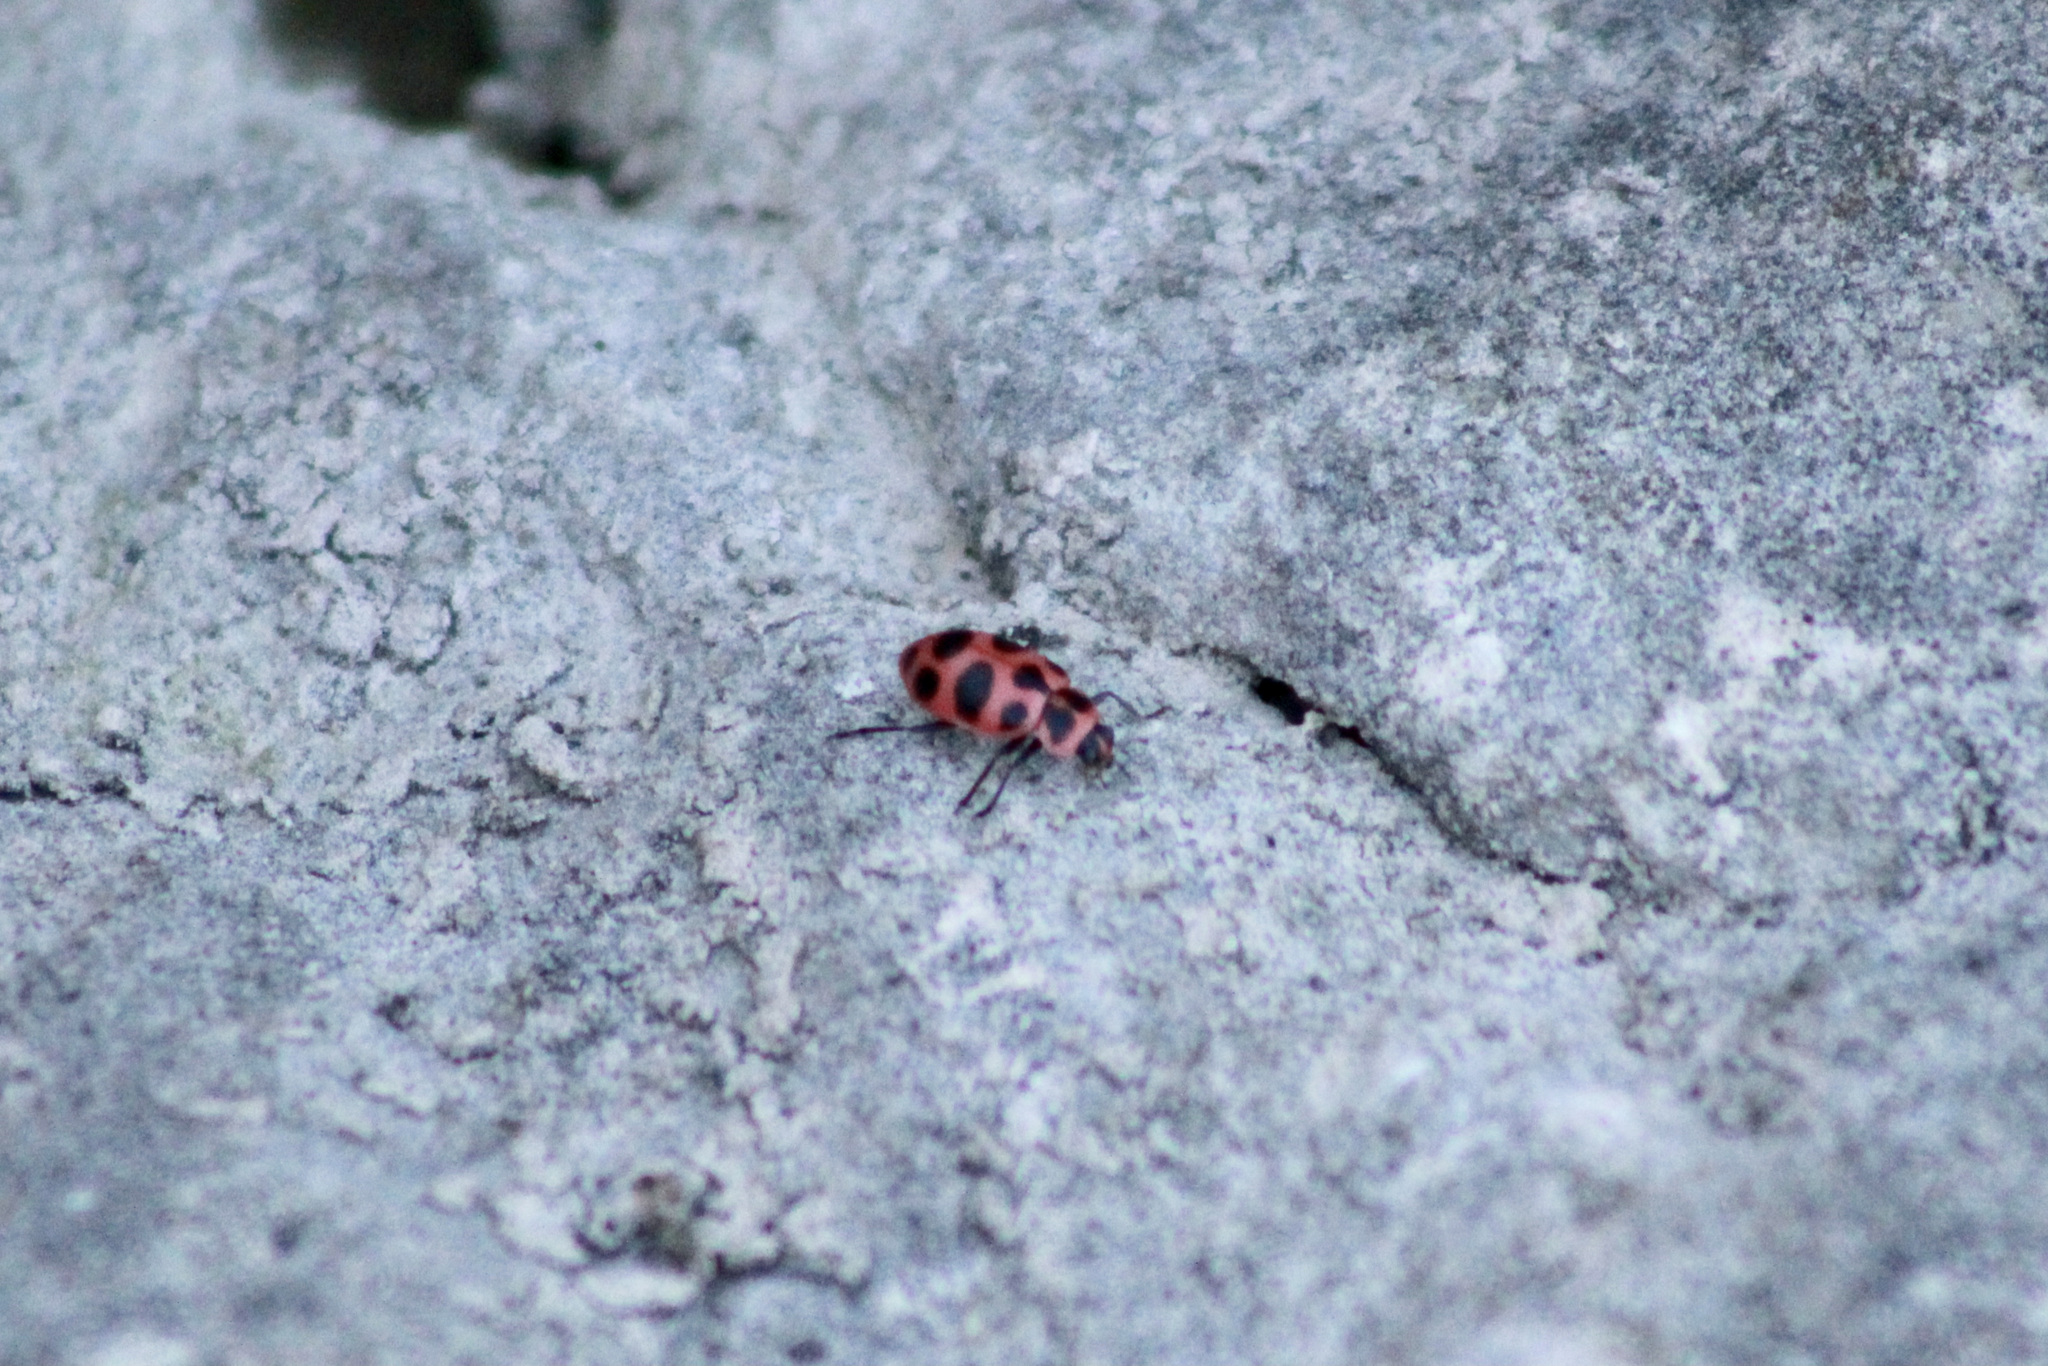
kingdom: Animalia
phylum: Arthropoda
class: Insecta
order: Coleoptera
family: Coccinellidae
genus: Coleomegilla
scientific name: Coleomegilla maculata
